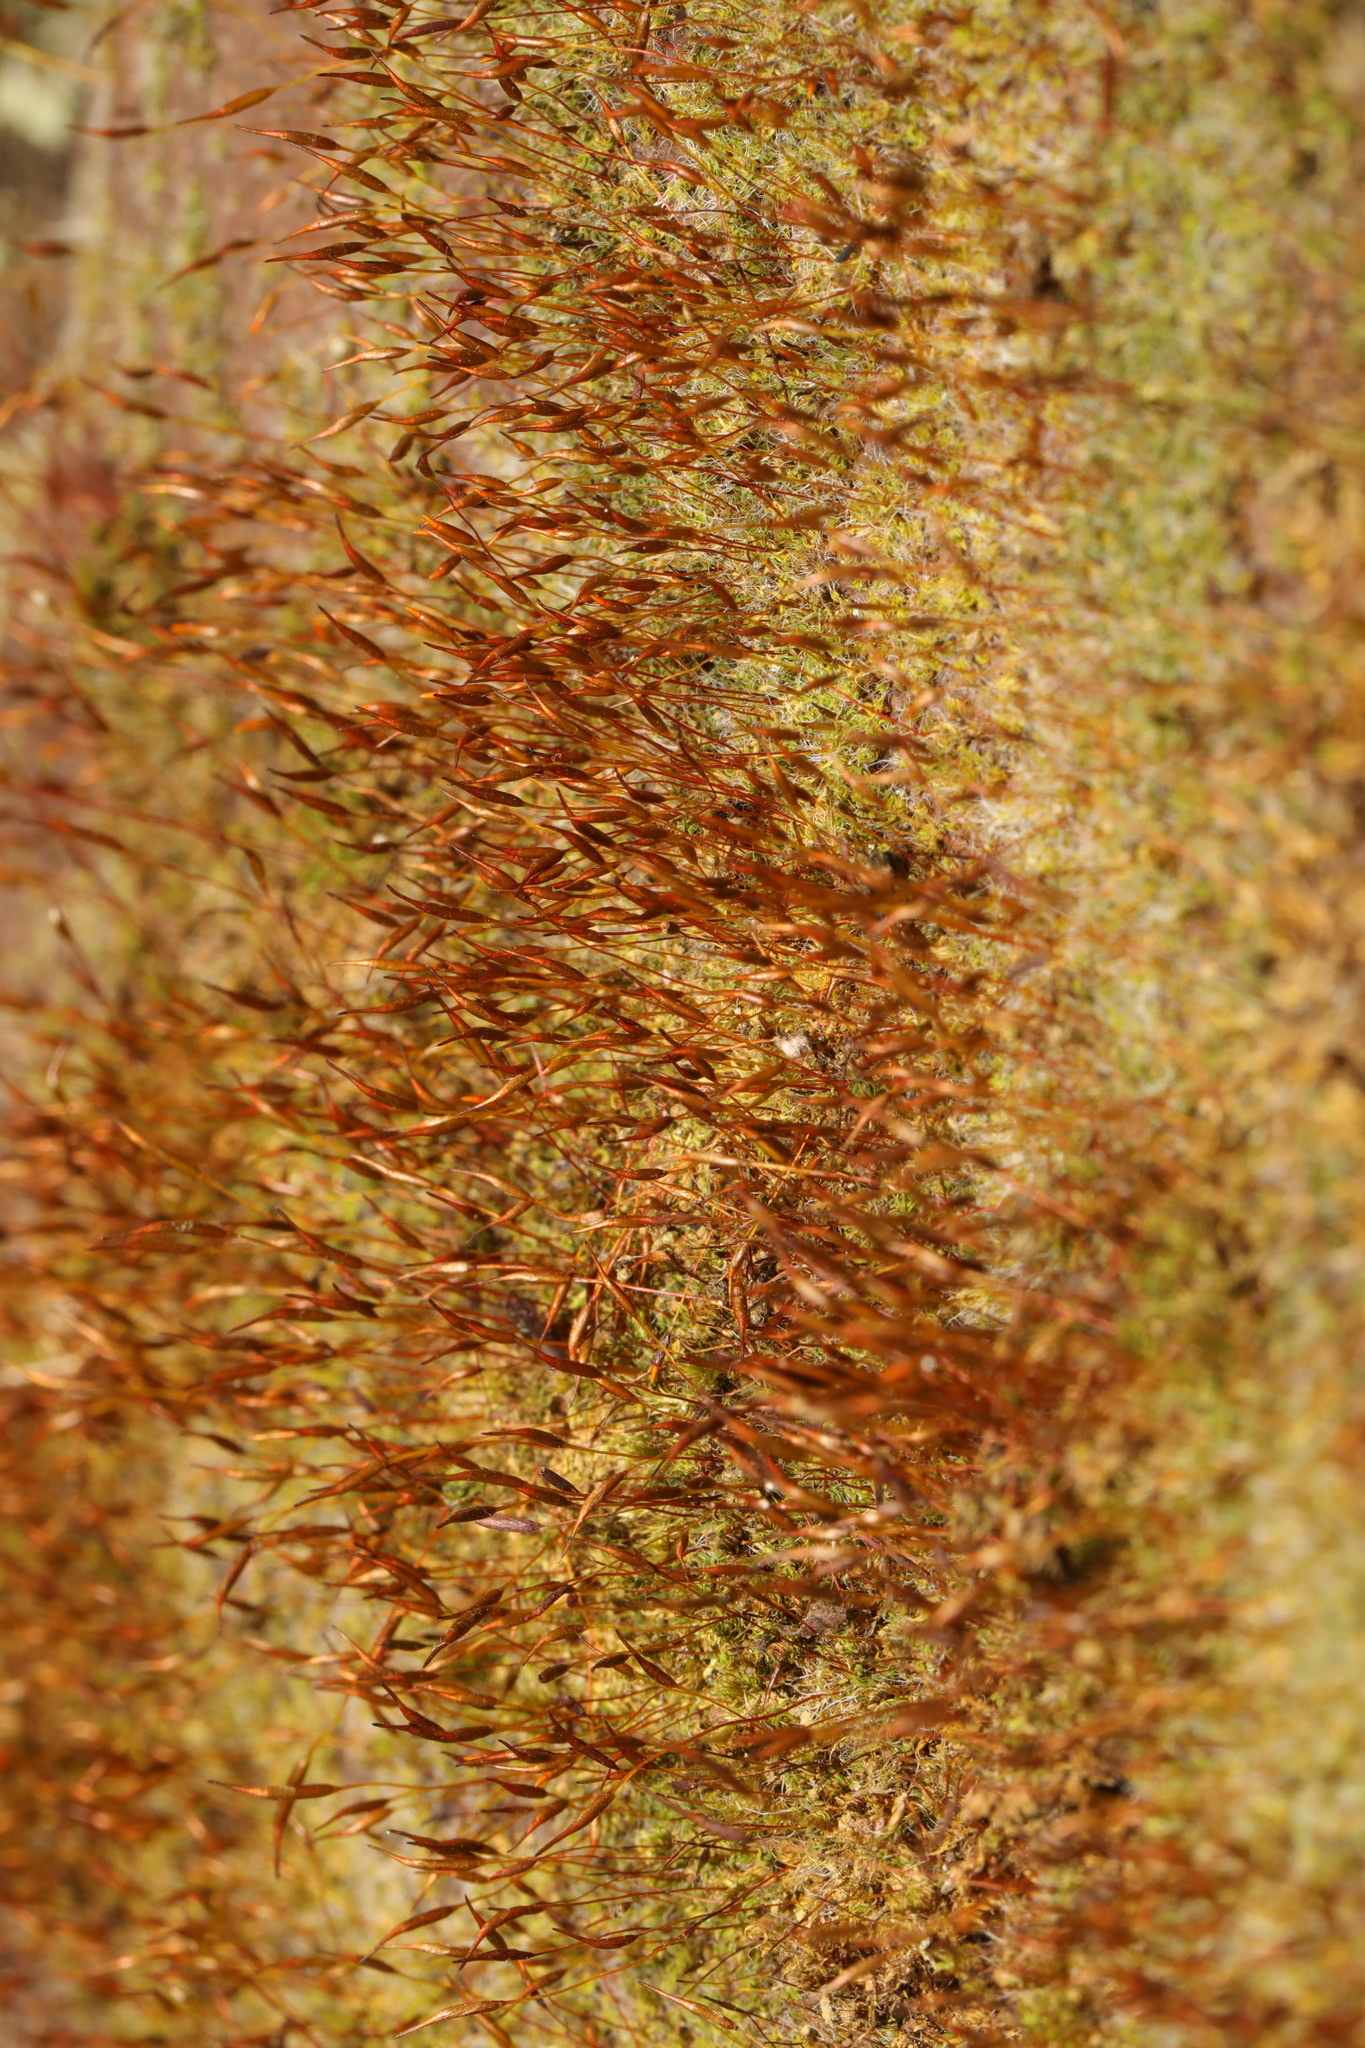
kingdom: Plantae
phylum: Bryophyta
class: Bryopsida
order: Pottiales
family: Pottiaceae
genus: Tortula
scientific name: Tortula muralis
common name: Wall screw-moss
